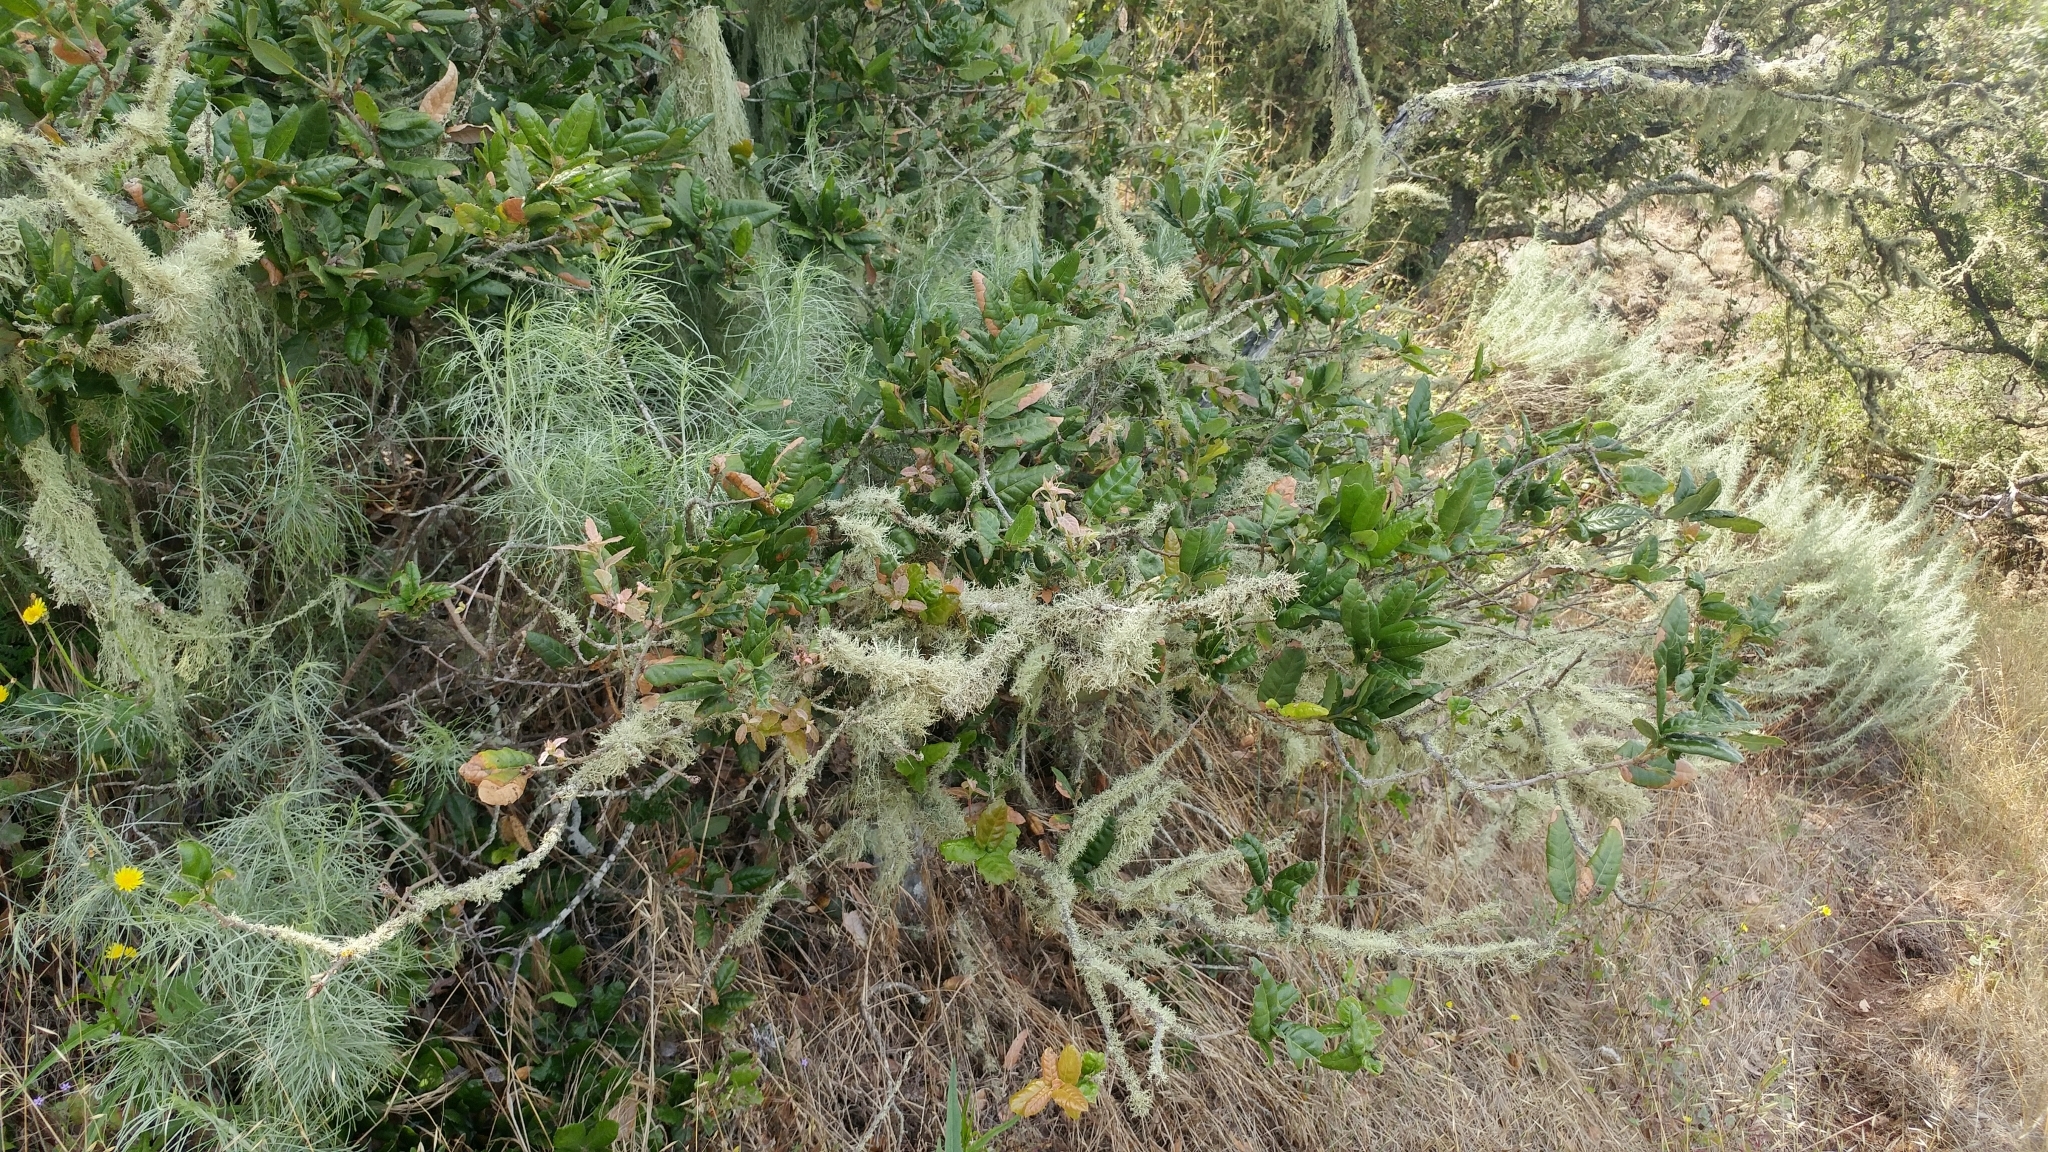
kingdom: Plantae
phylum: Tracheophyta
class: Magnoliopsida
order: Fagales
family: Fagaceae
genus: Quercus
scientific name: Quercus tomentella
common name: Island oak
